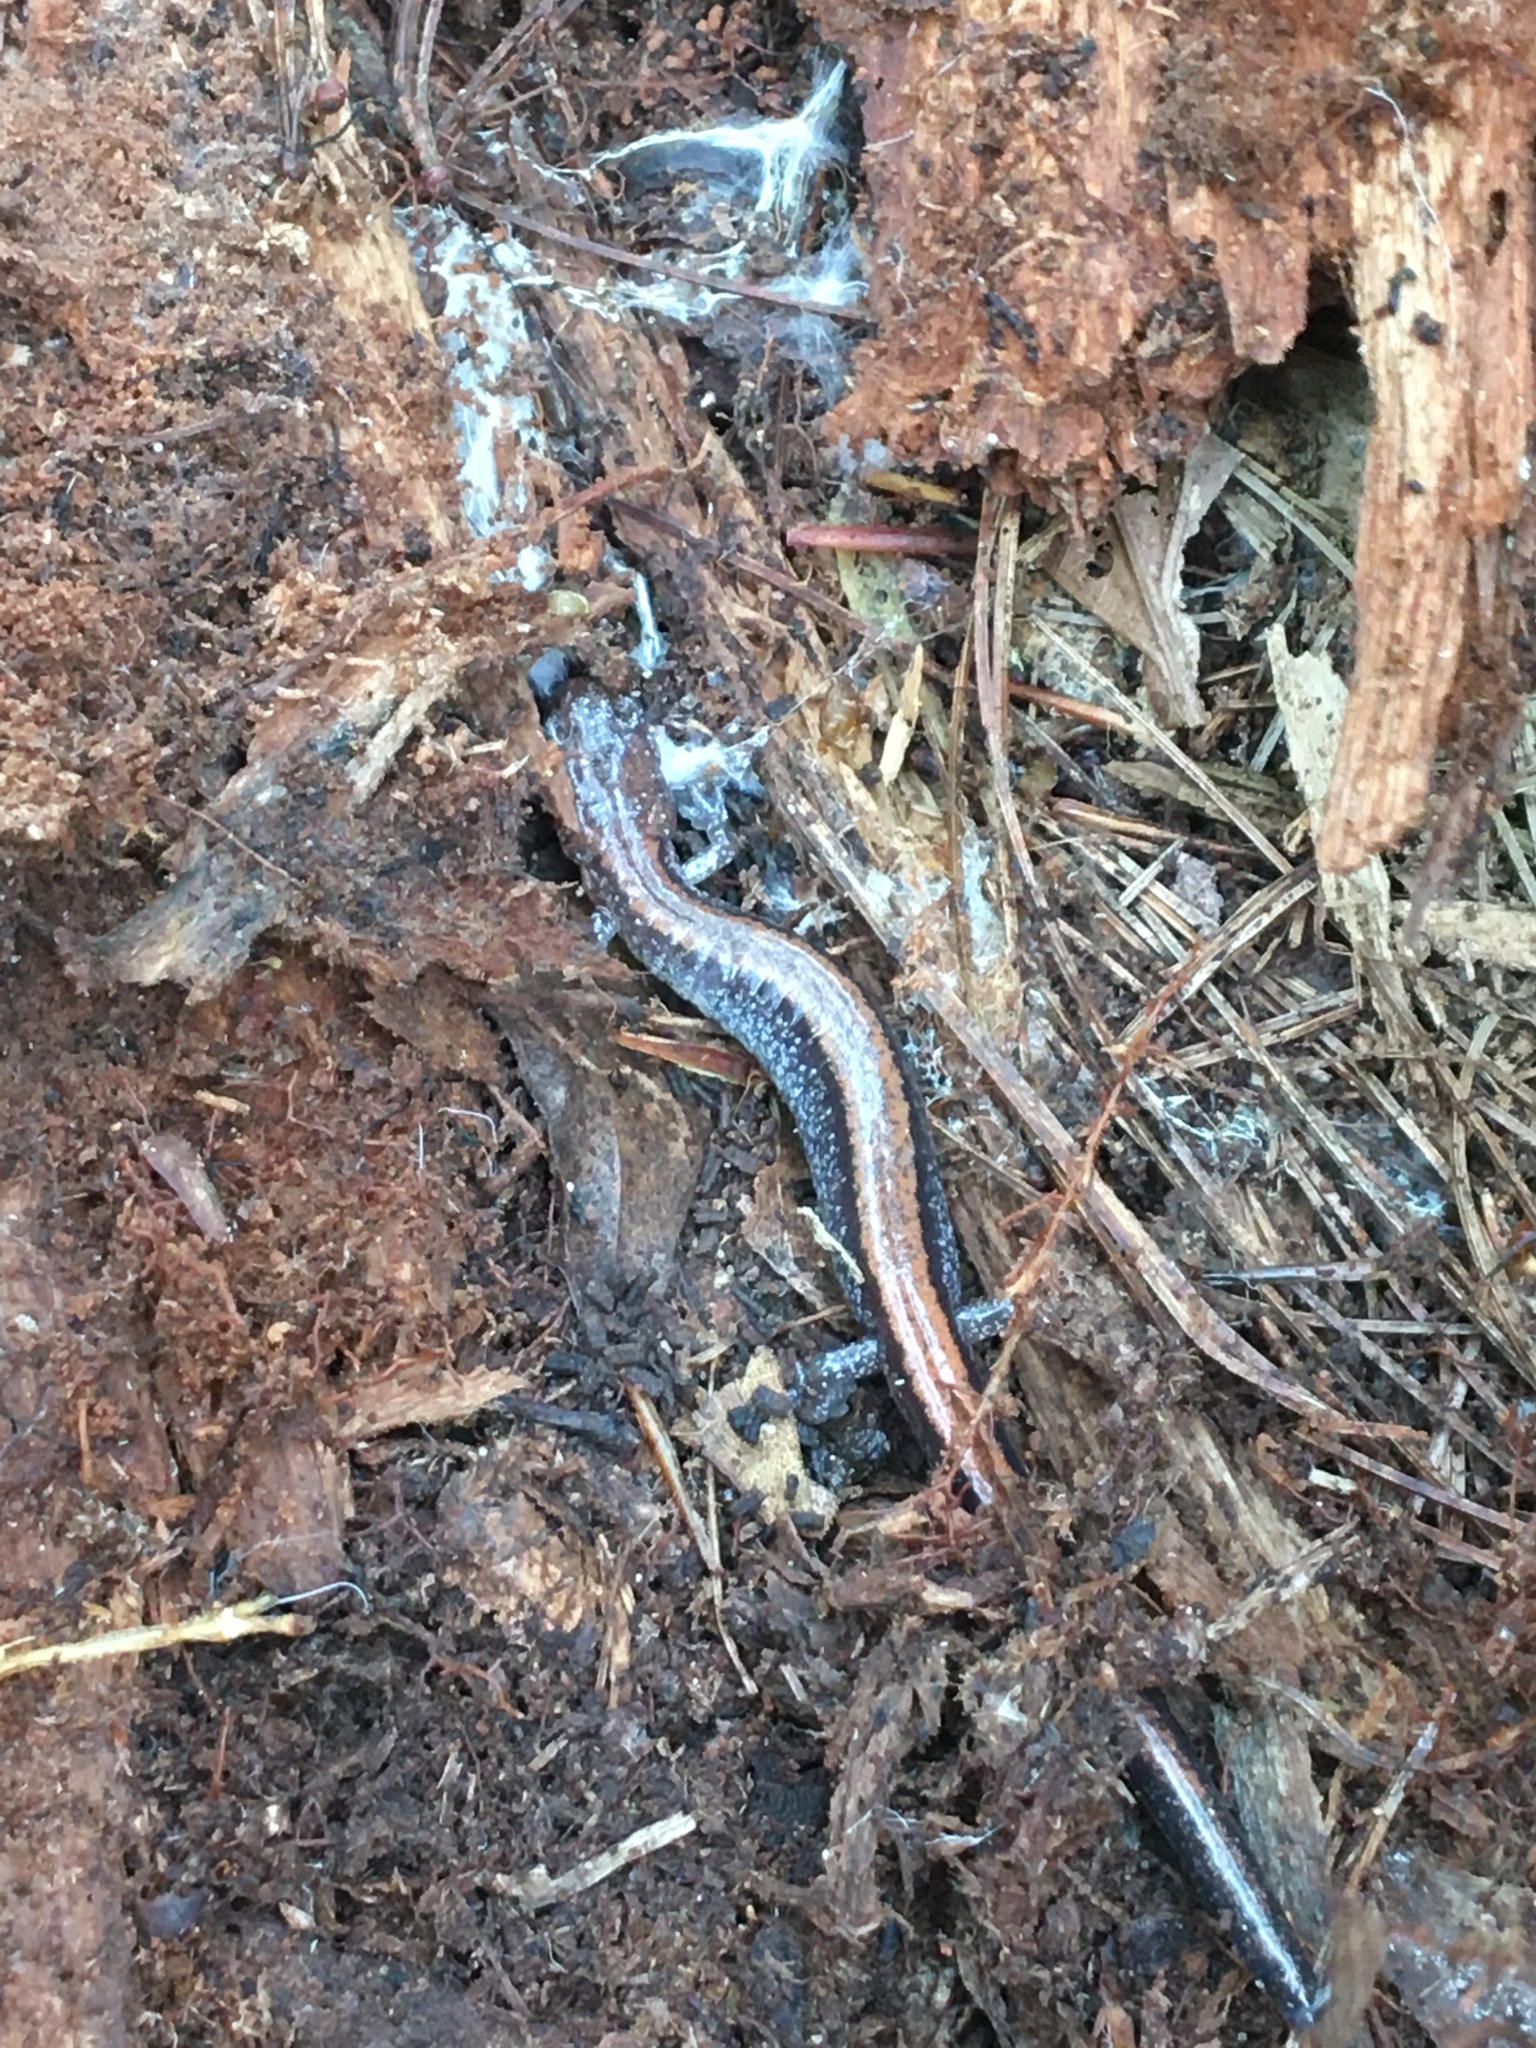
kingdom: Animalia
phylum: Chordata
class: Amphibia
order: Caudata
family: Plethodontidae
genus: Plethodon
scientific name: Plethodon cinereus
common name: Redback salamander
